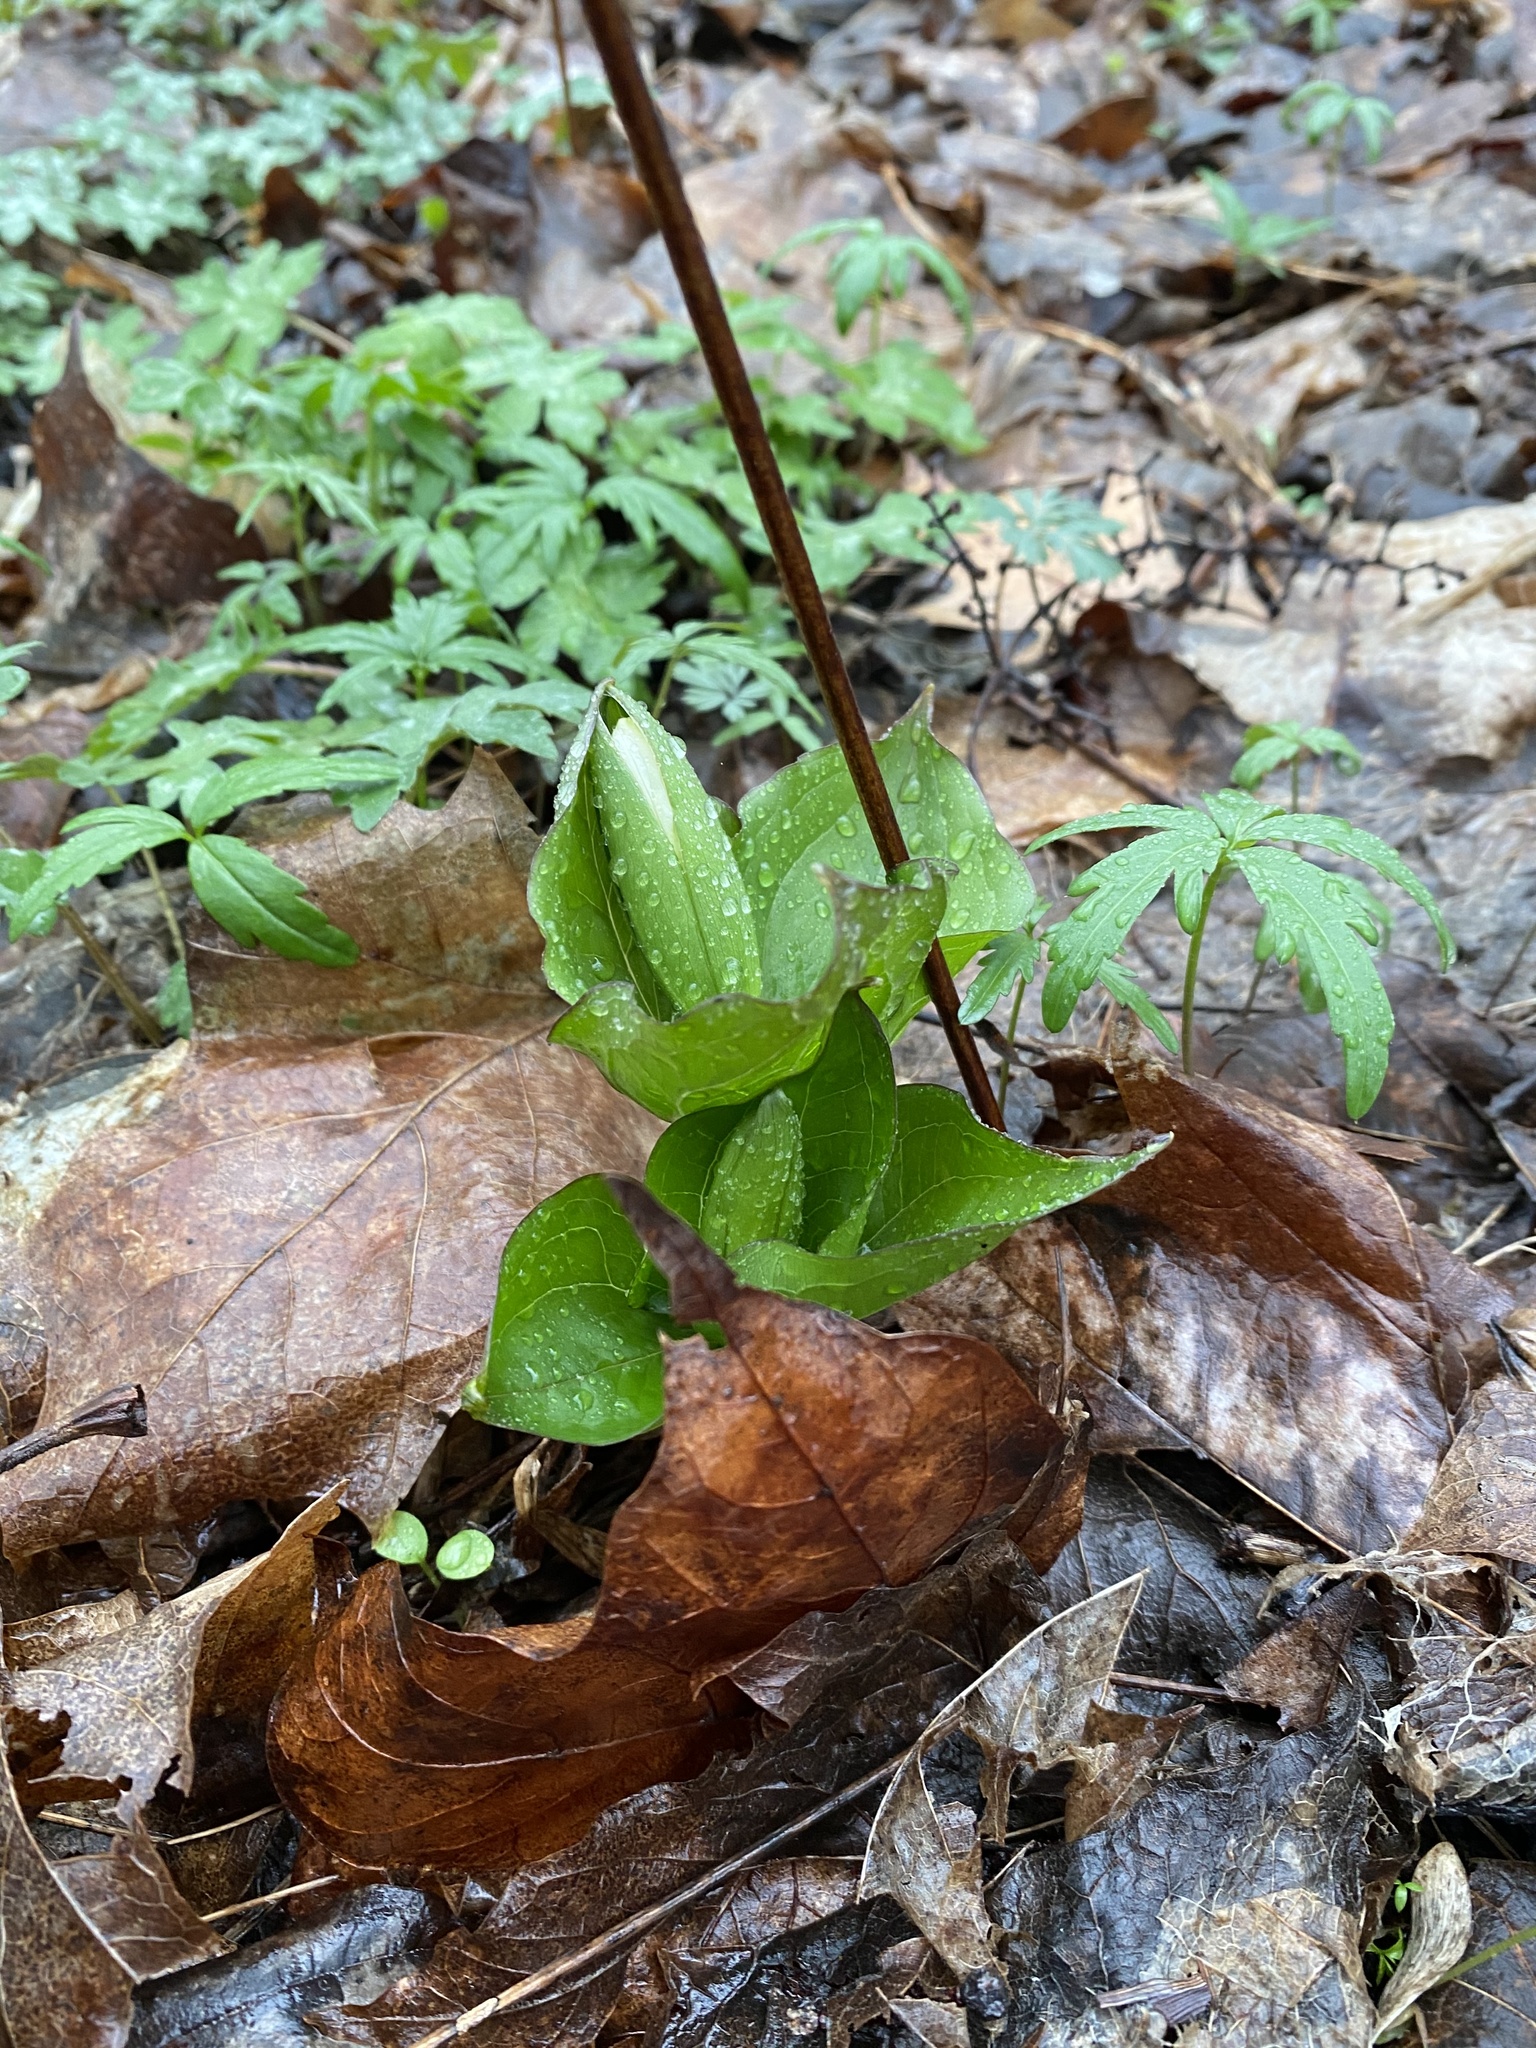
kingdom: Plantae
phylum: Tracheophyta
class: Liliopsida
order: Liliales
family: Melanthiaceae
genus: Trillium
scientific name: Trillium grandiflorum
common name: Great white trillium
